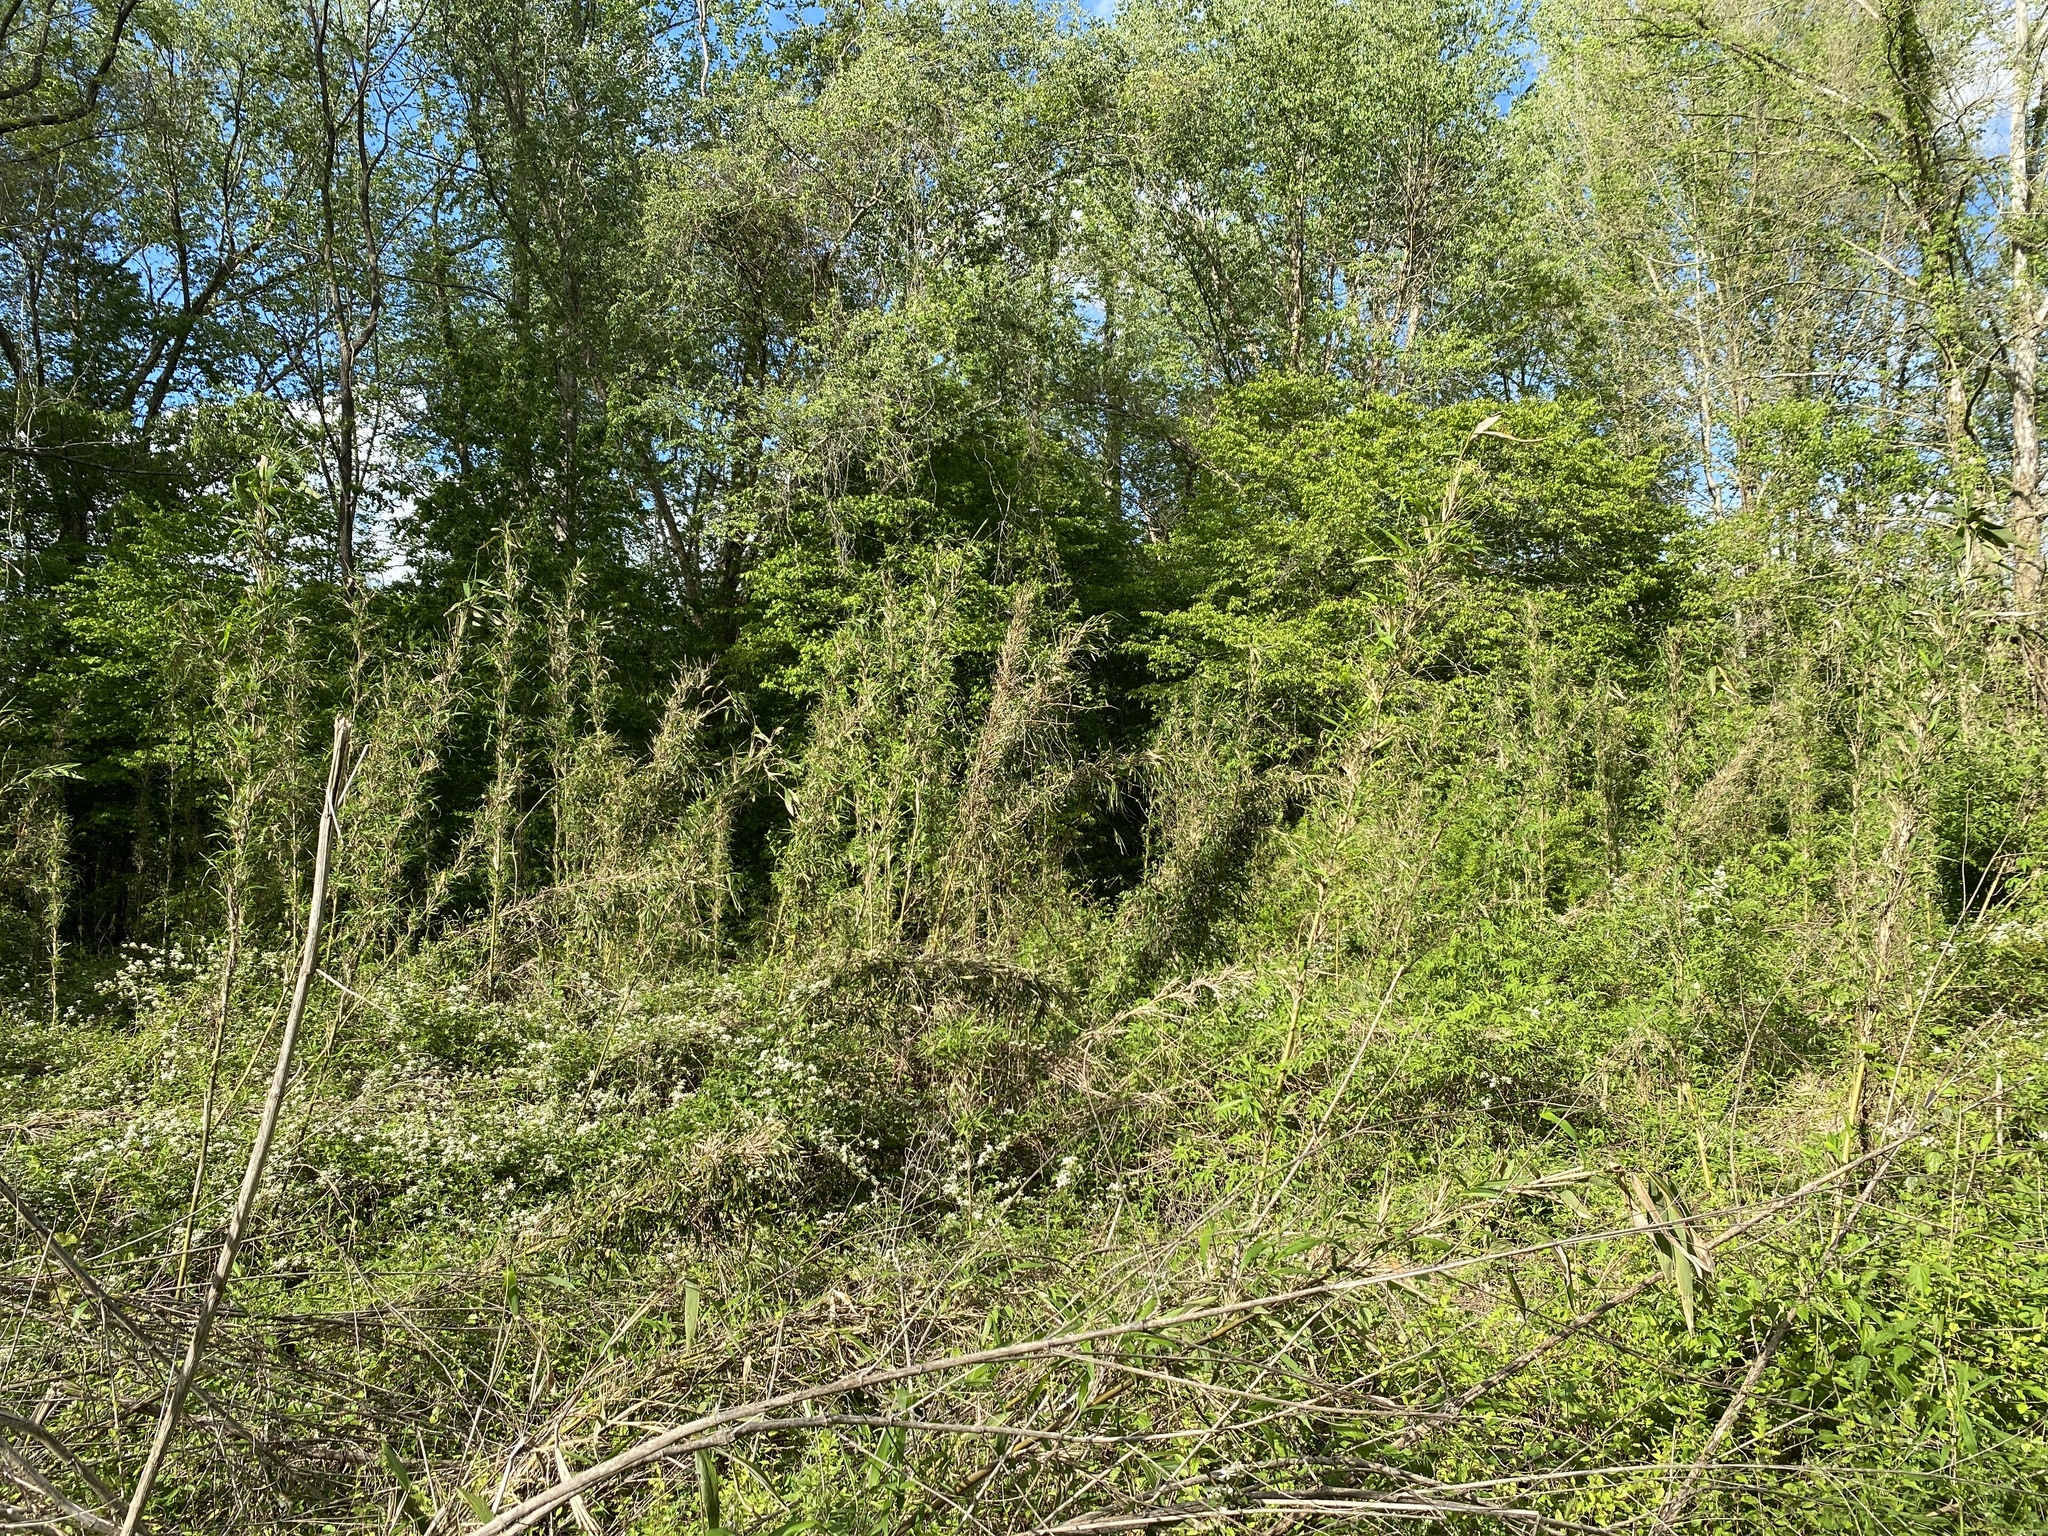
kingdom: Plantae
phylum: Tracheophyta
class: Liliopsida
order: Poales
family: Poaceae
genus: Arundinaria
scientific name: Arundinaria gigantea
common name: Giant cane
